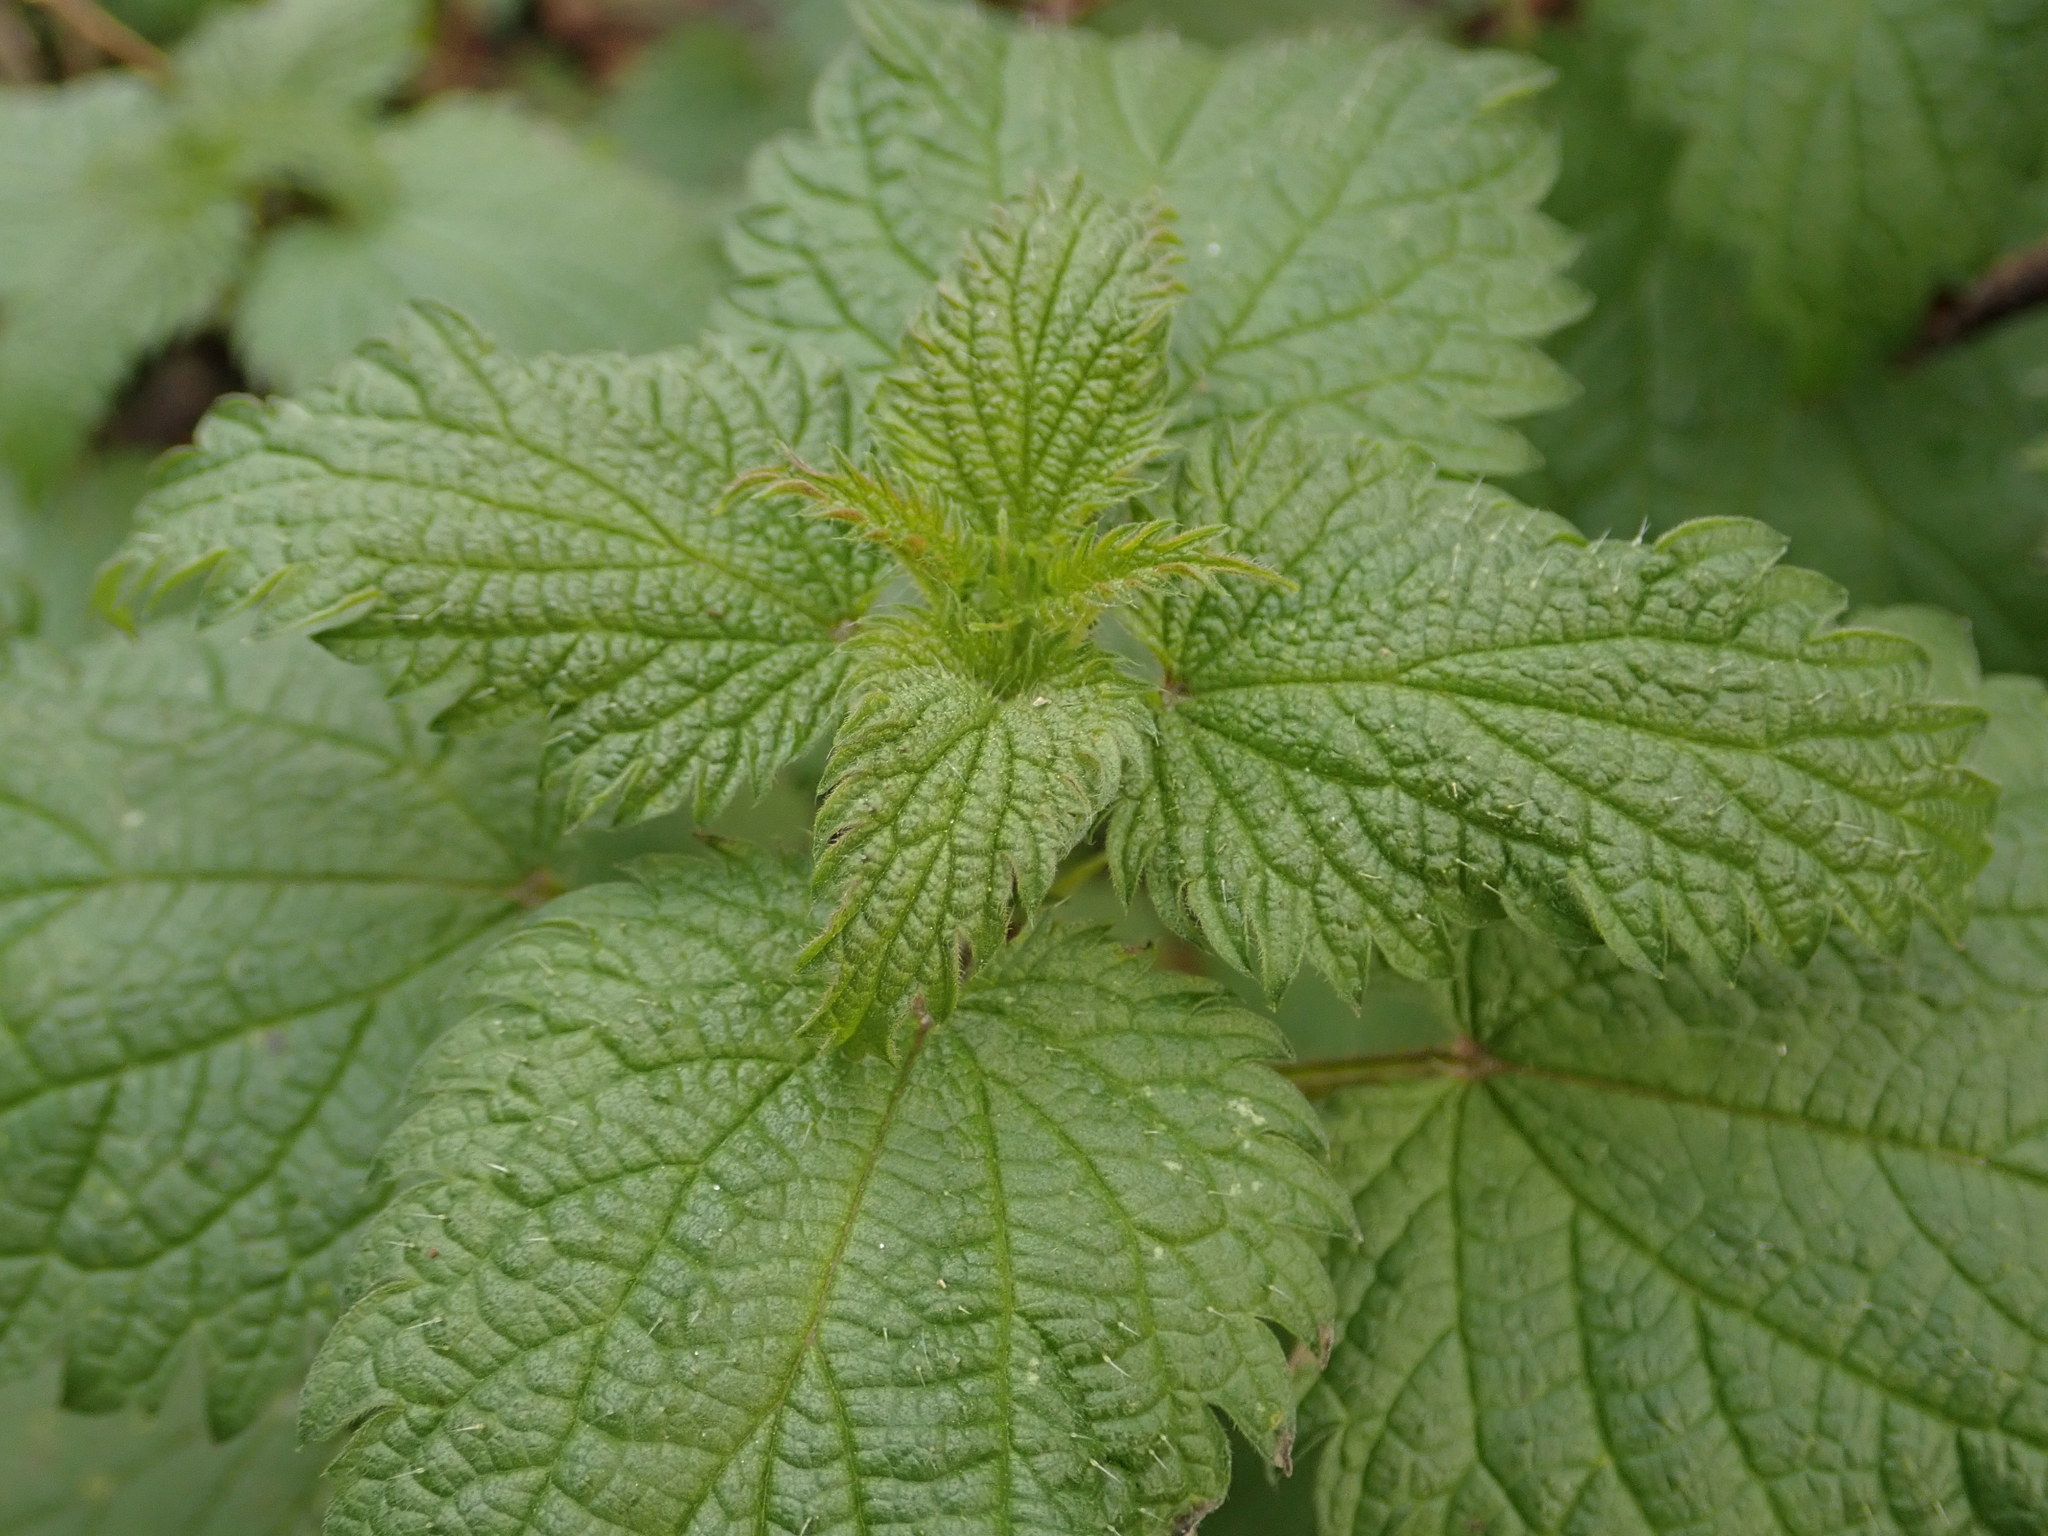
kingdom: Plantae
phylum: Tracheophyta
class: Magnoliopsida
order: Rosales
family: Urticaceae
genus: Urtica
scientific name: Urtica dioica
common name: Common nettle
